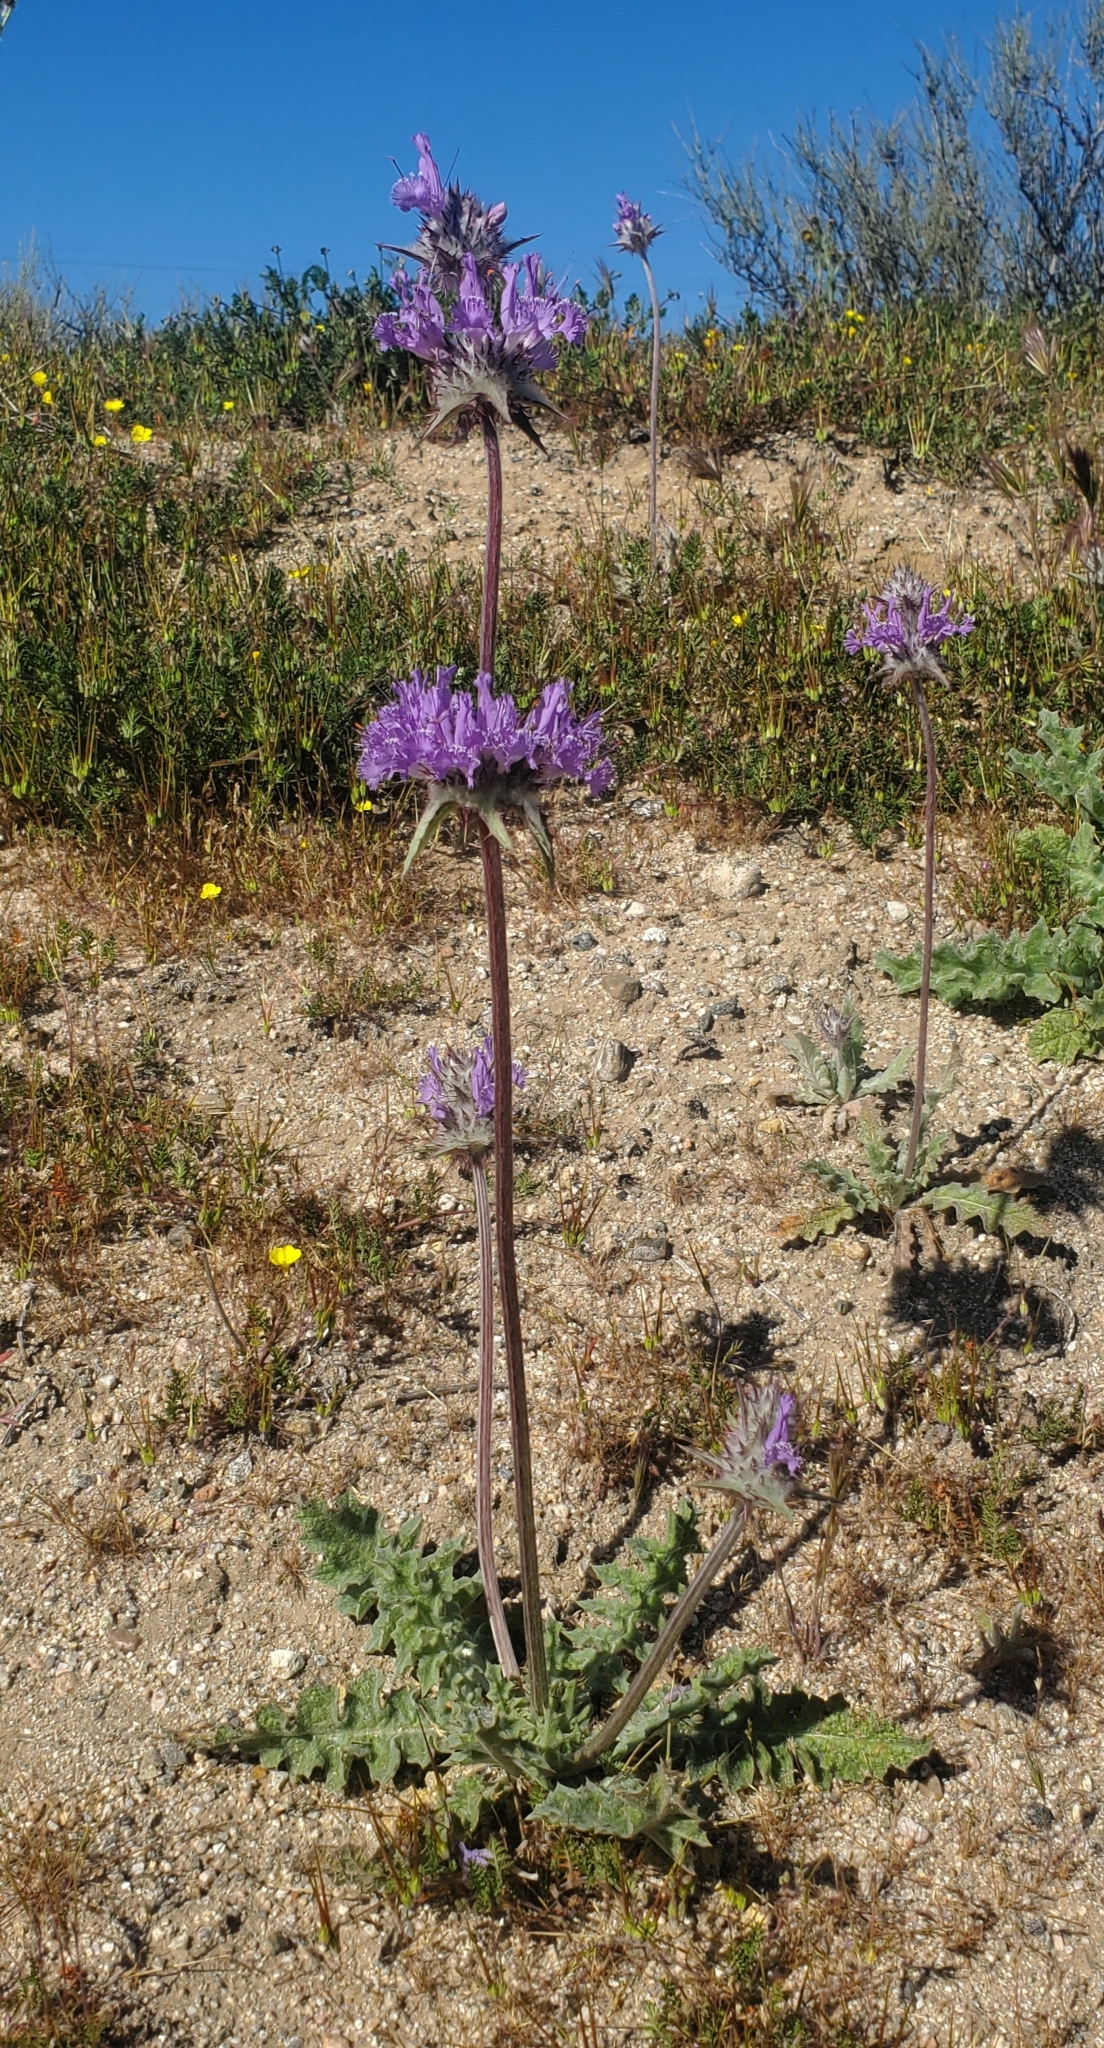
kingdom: Plantae
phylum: Tracheophyta
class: Magnoliopsida
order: Lamiales
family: Lamiaceae
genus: Salvia
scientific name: Salvia carduacea
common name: Thistle sage
